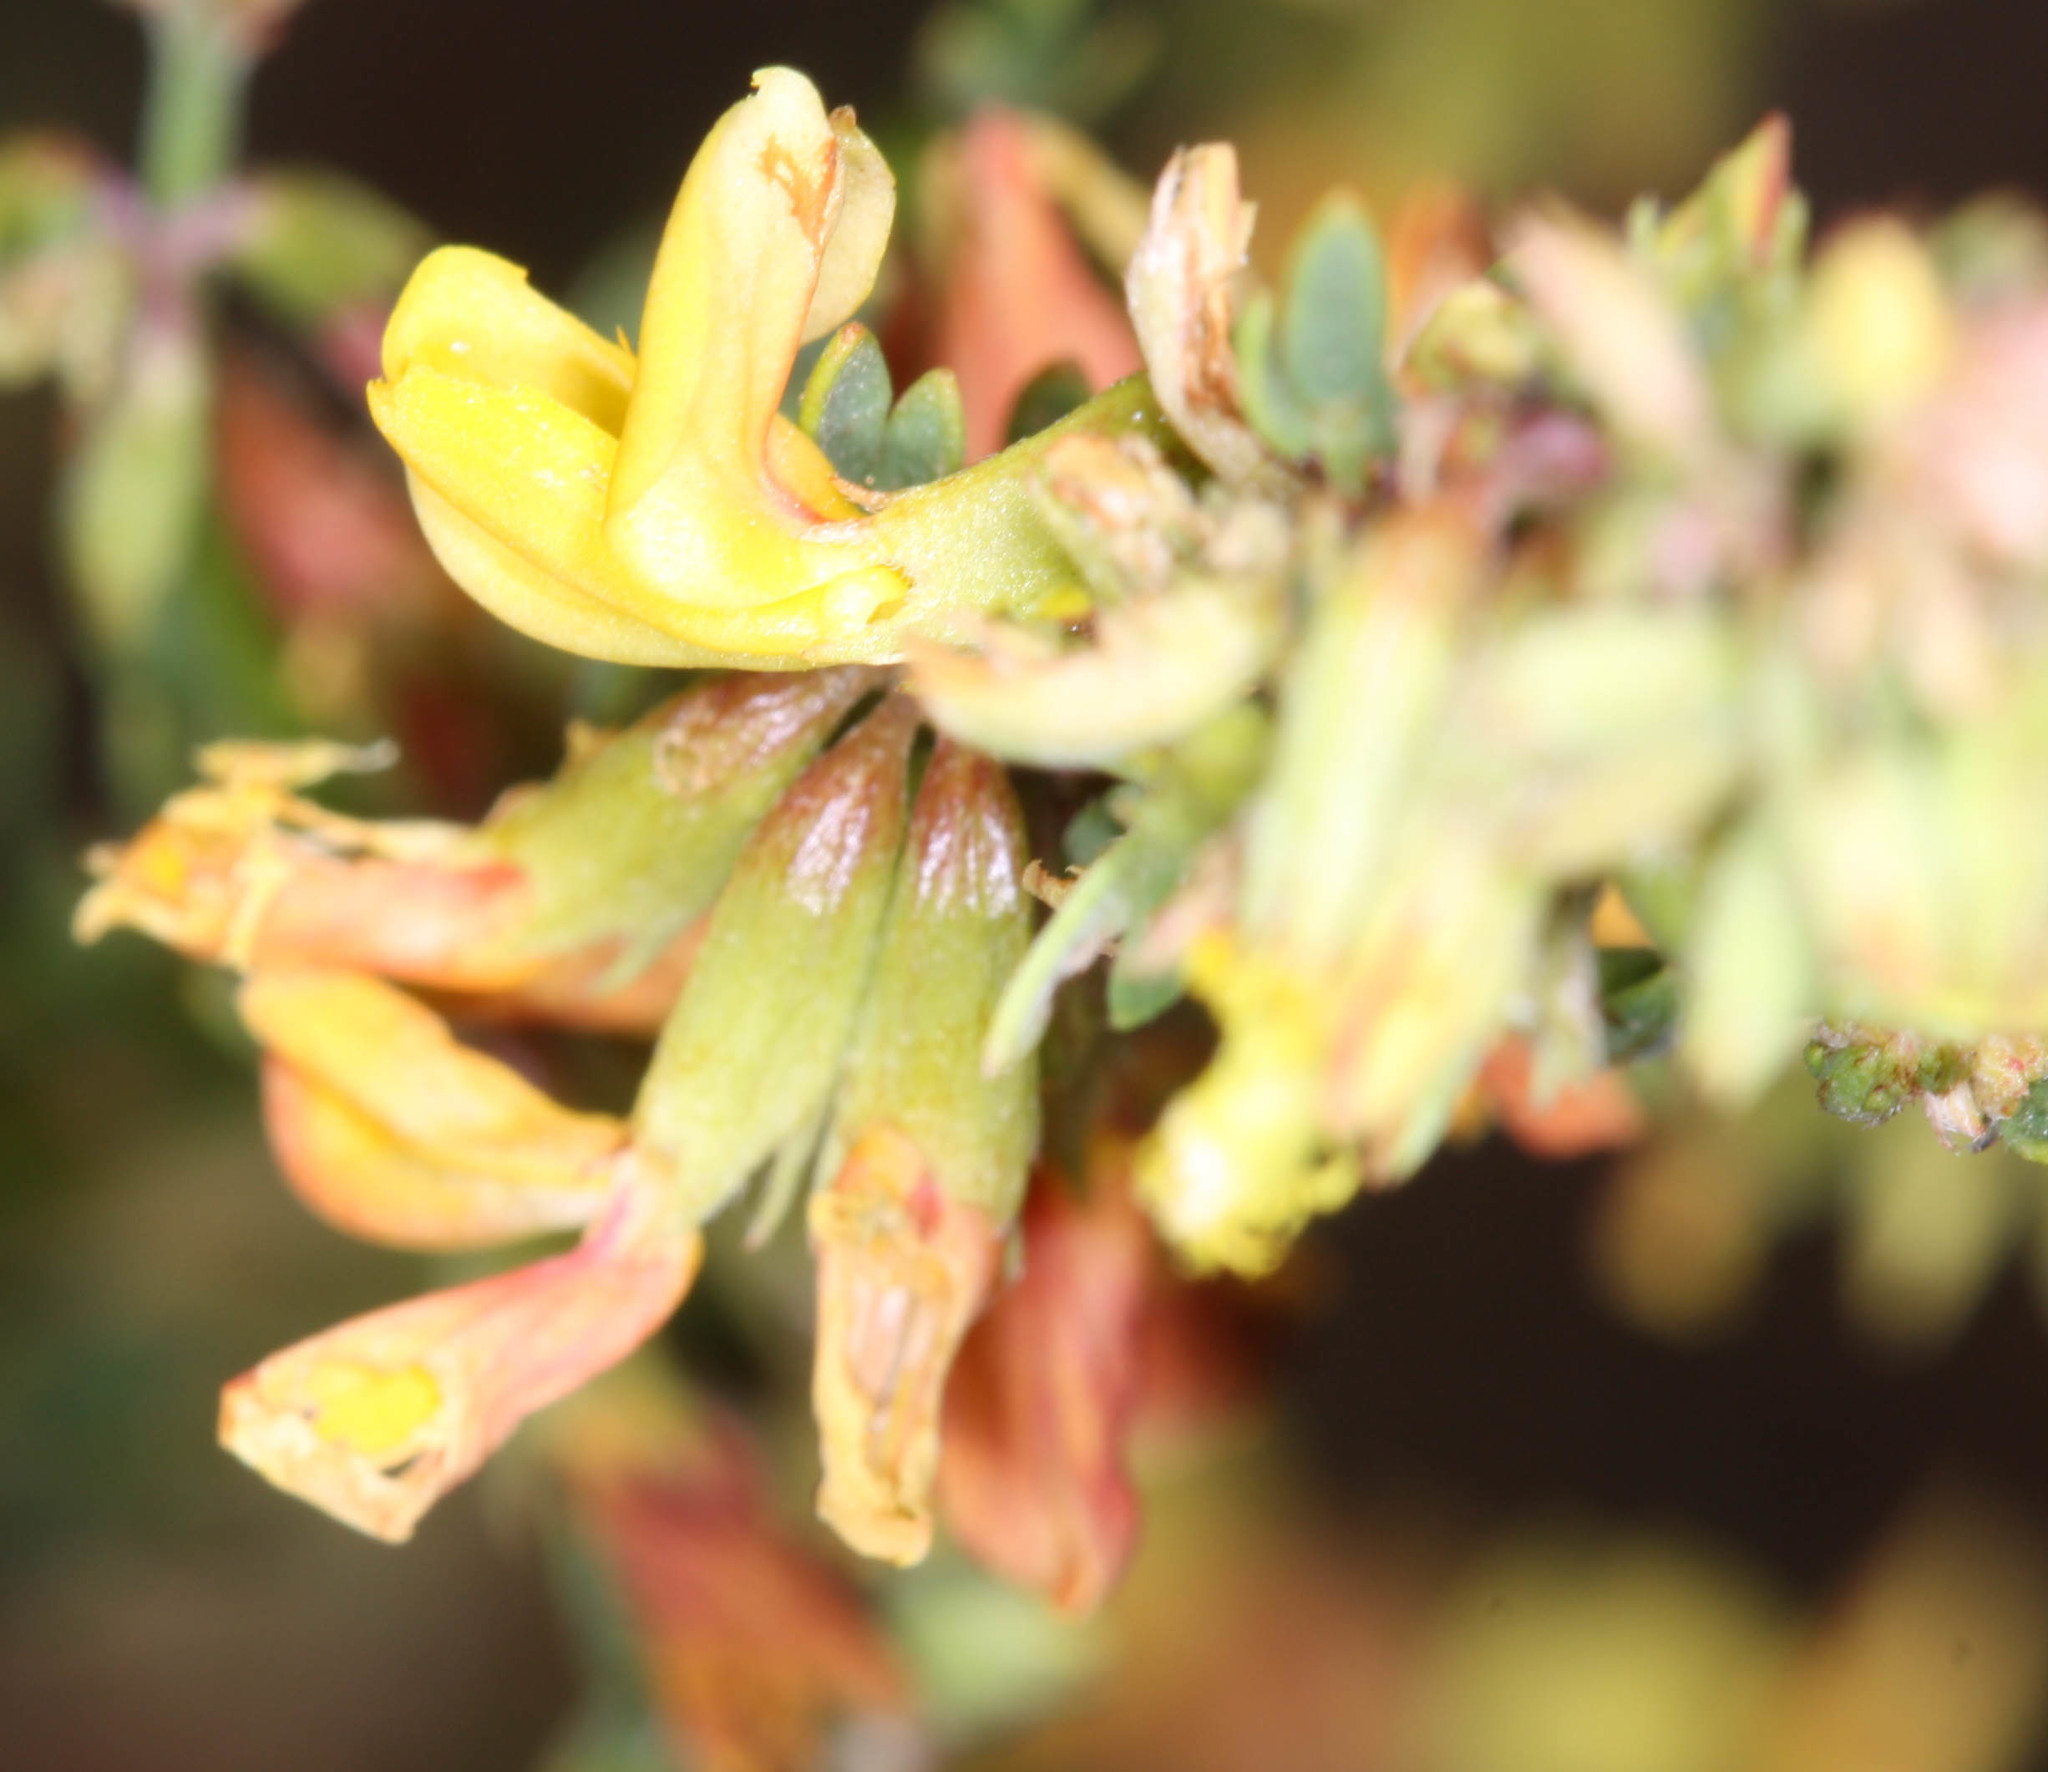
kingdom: Plantae
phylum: Tracheophyta
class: Magnoliopsida
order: Fabales
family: Fabaceae
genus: Acmispon
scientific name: Acmispon glaber
